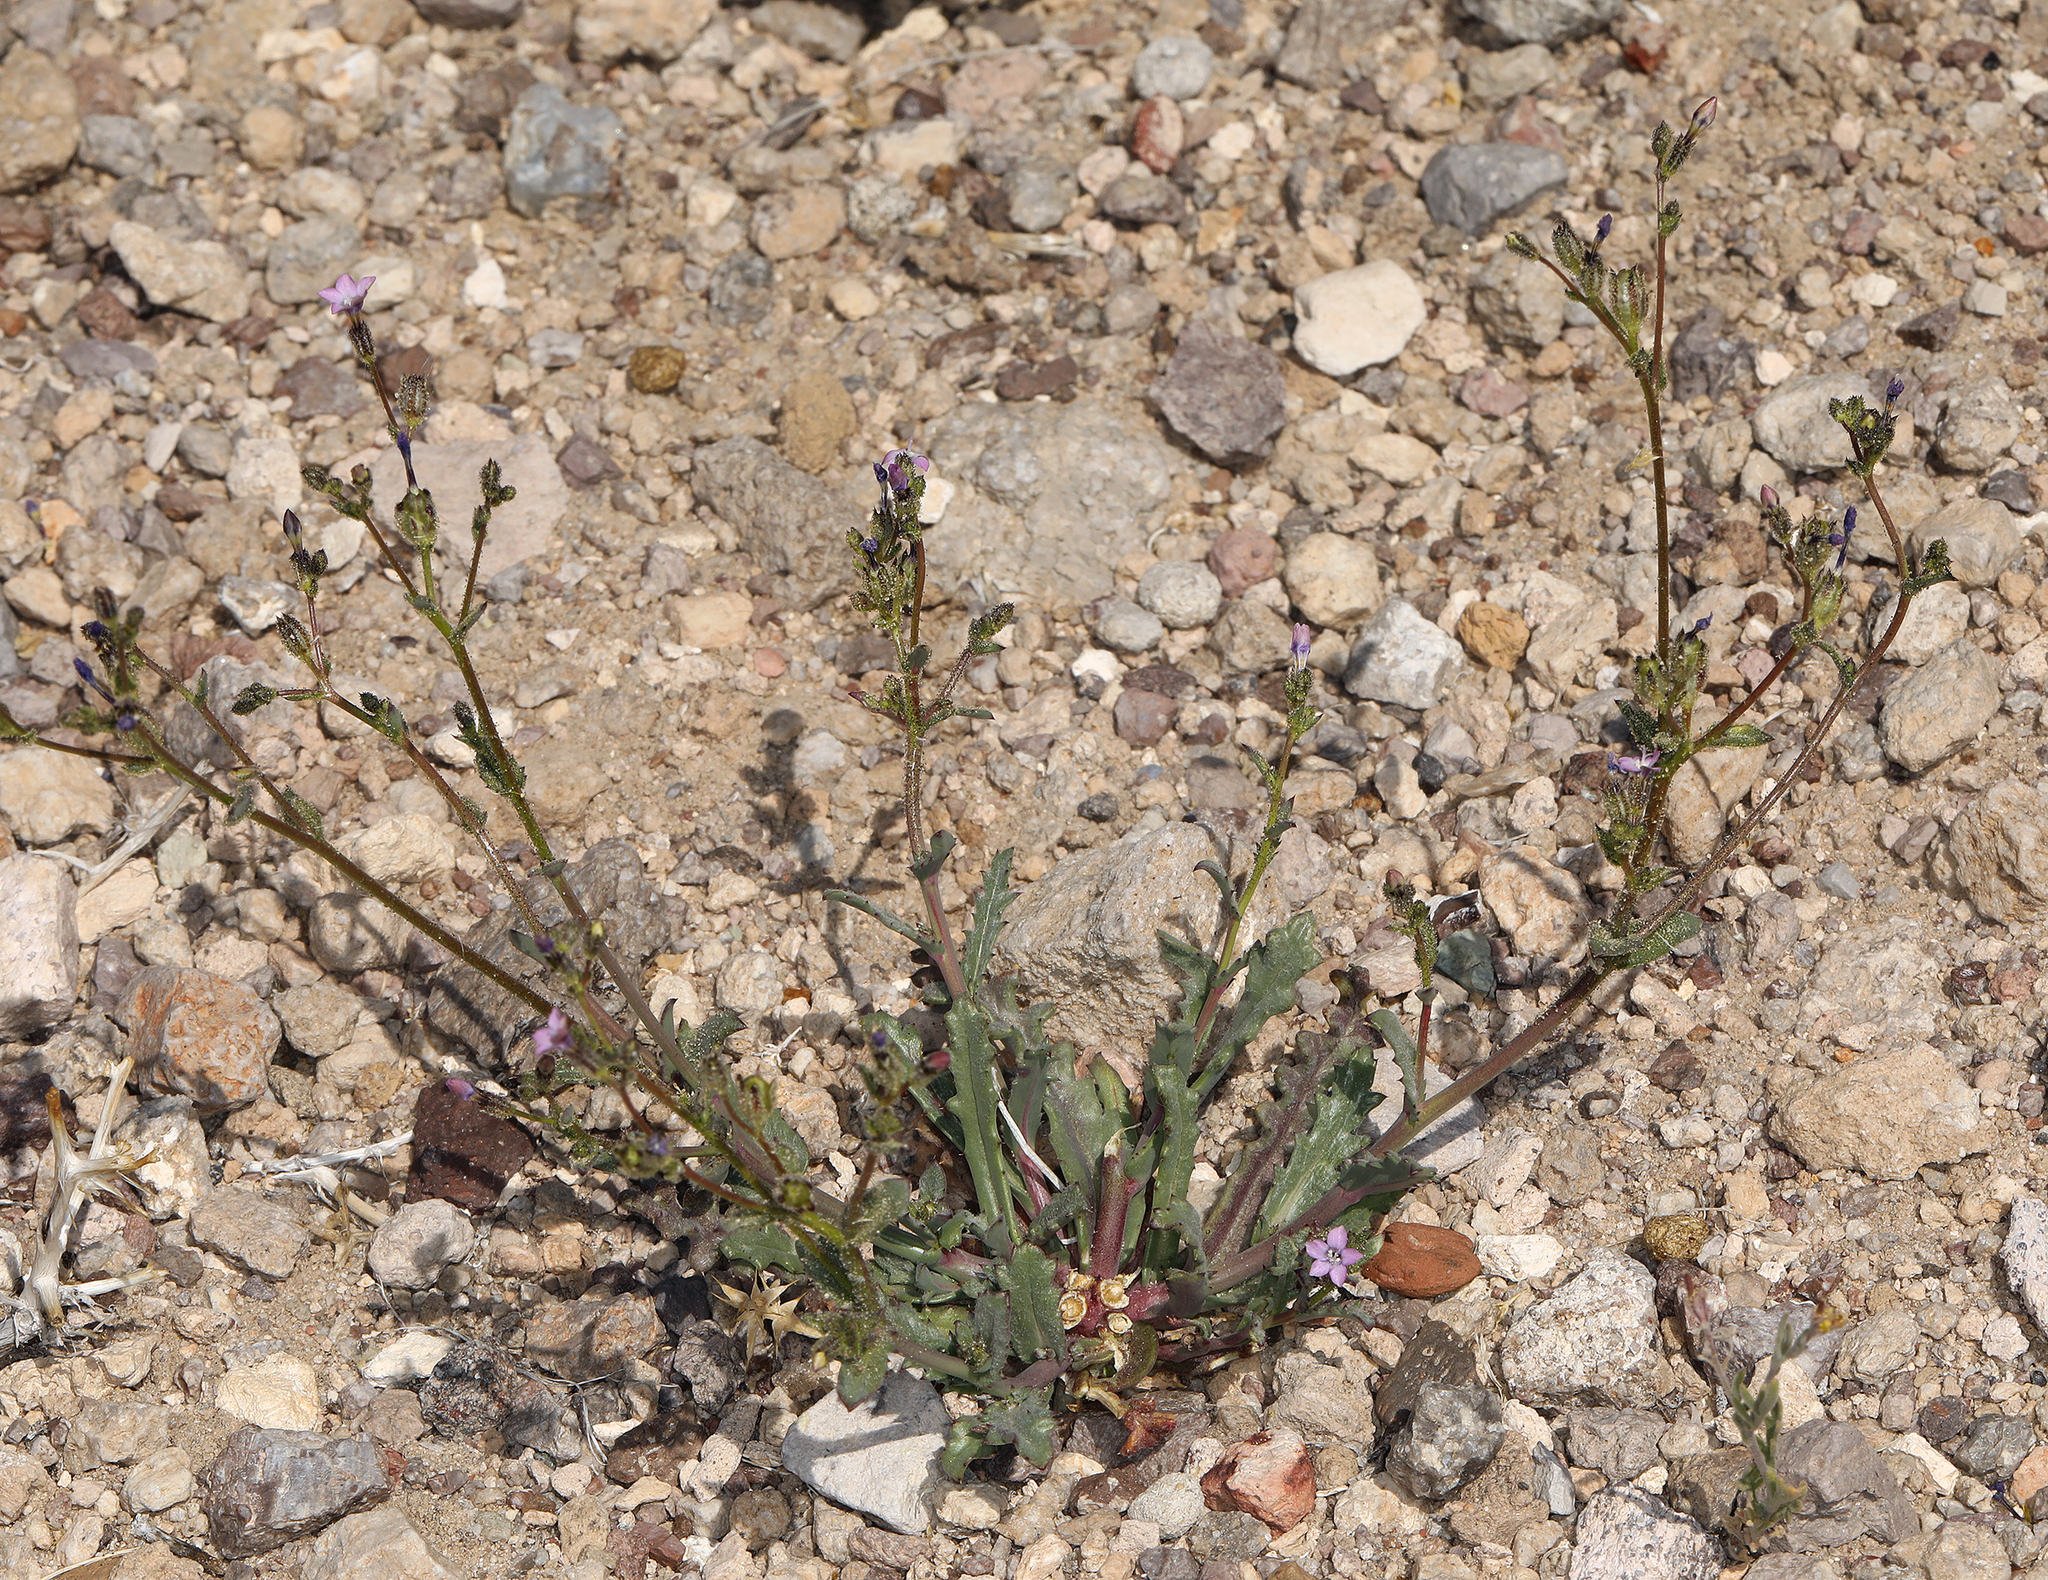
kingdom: Plantae
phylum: Tracheophyta
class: Magnoliopsida
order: Ericales
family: Polemoniaceae
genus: Gilia
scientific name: Gilia sinuata
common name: Rosy gilia
